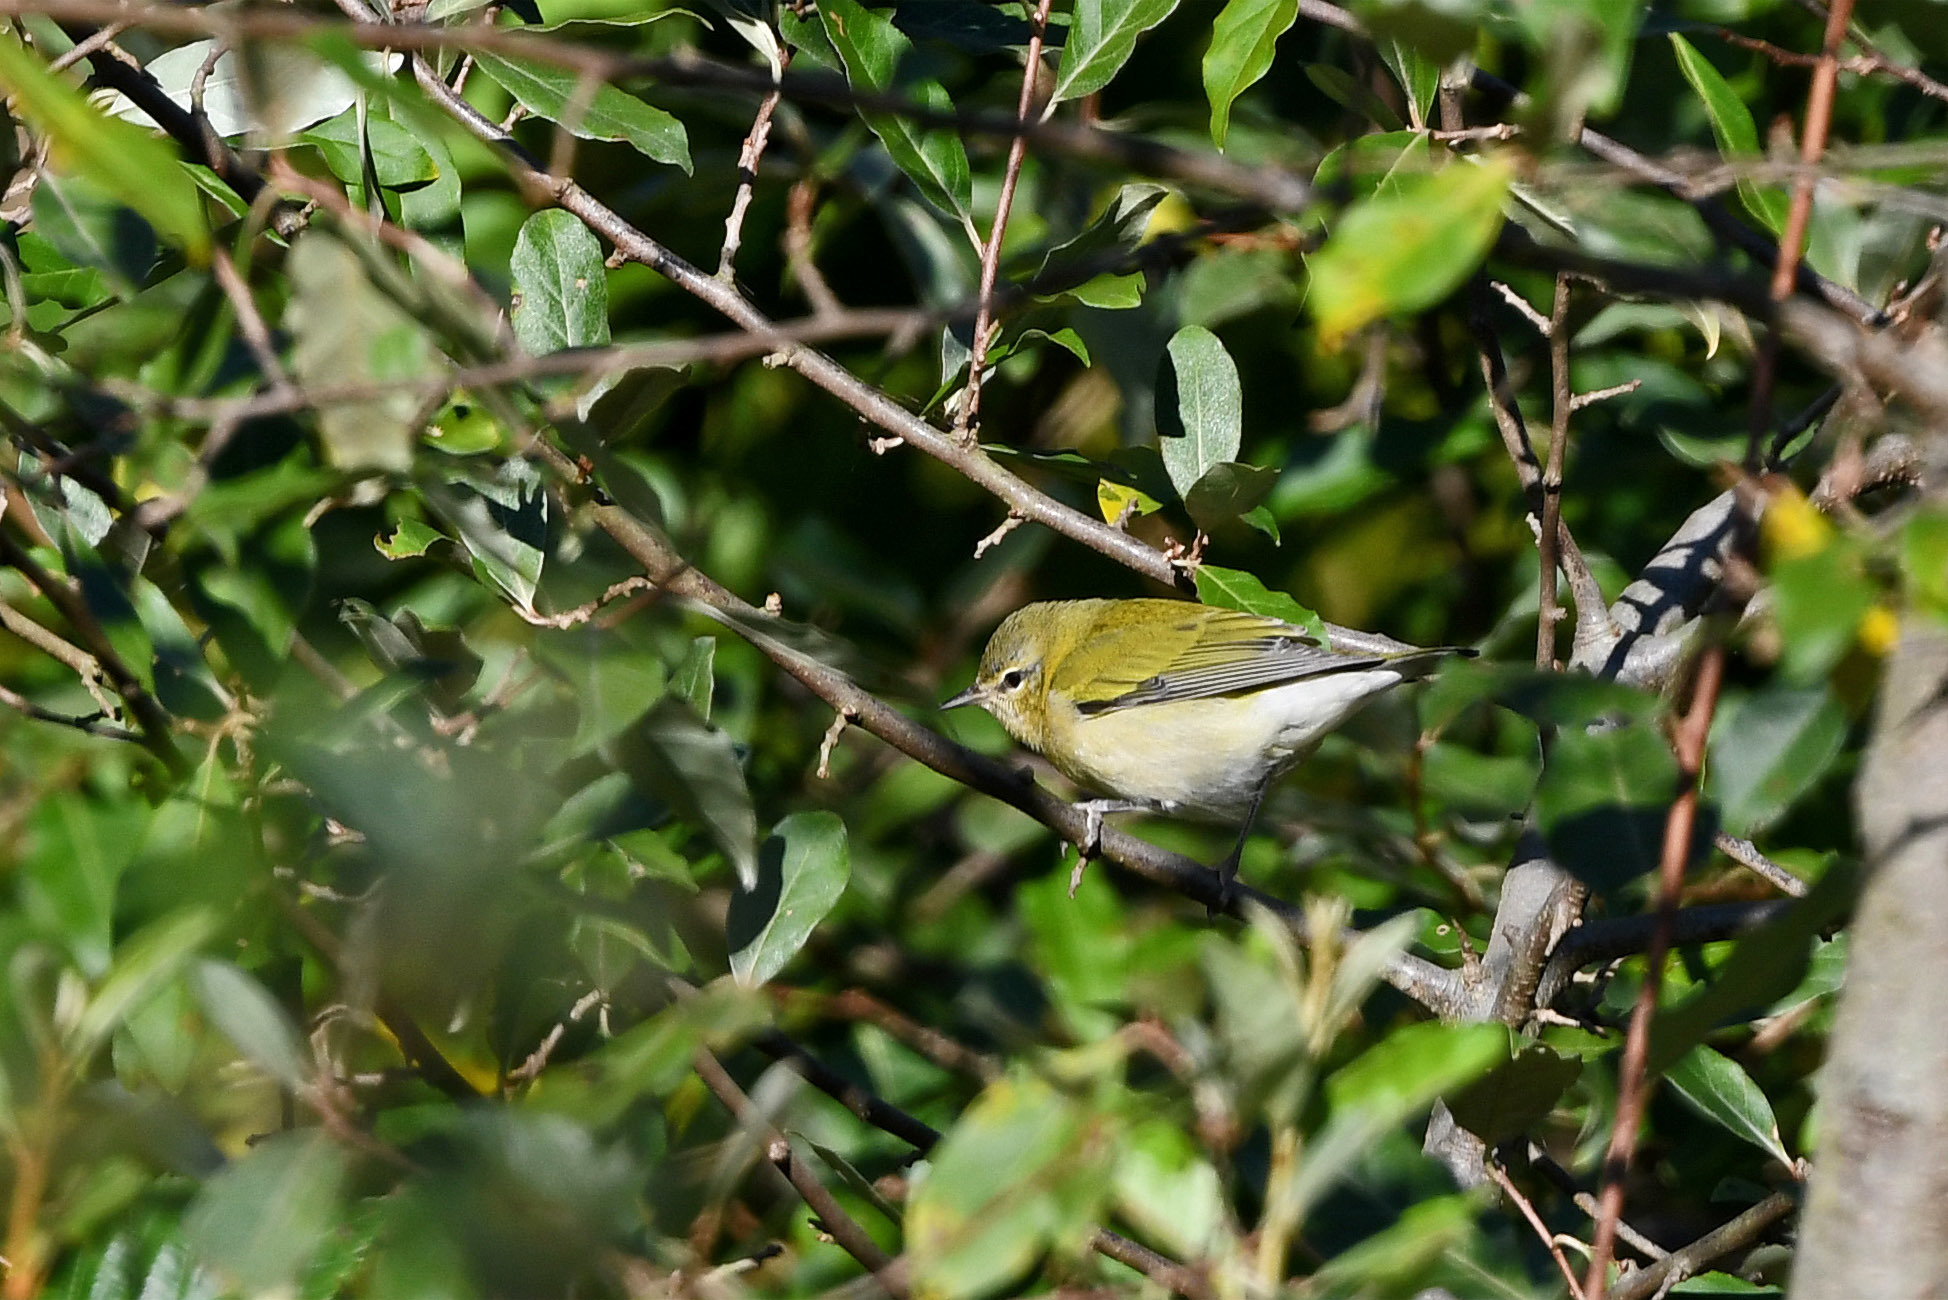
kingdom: Animalia
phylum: Chordata
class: Aves
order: Passeriformes
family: Parulidae
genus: Leiothlypis
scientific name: Leiothlypis peregrina
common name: Tennessee warbler
